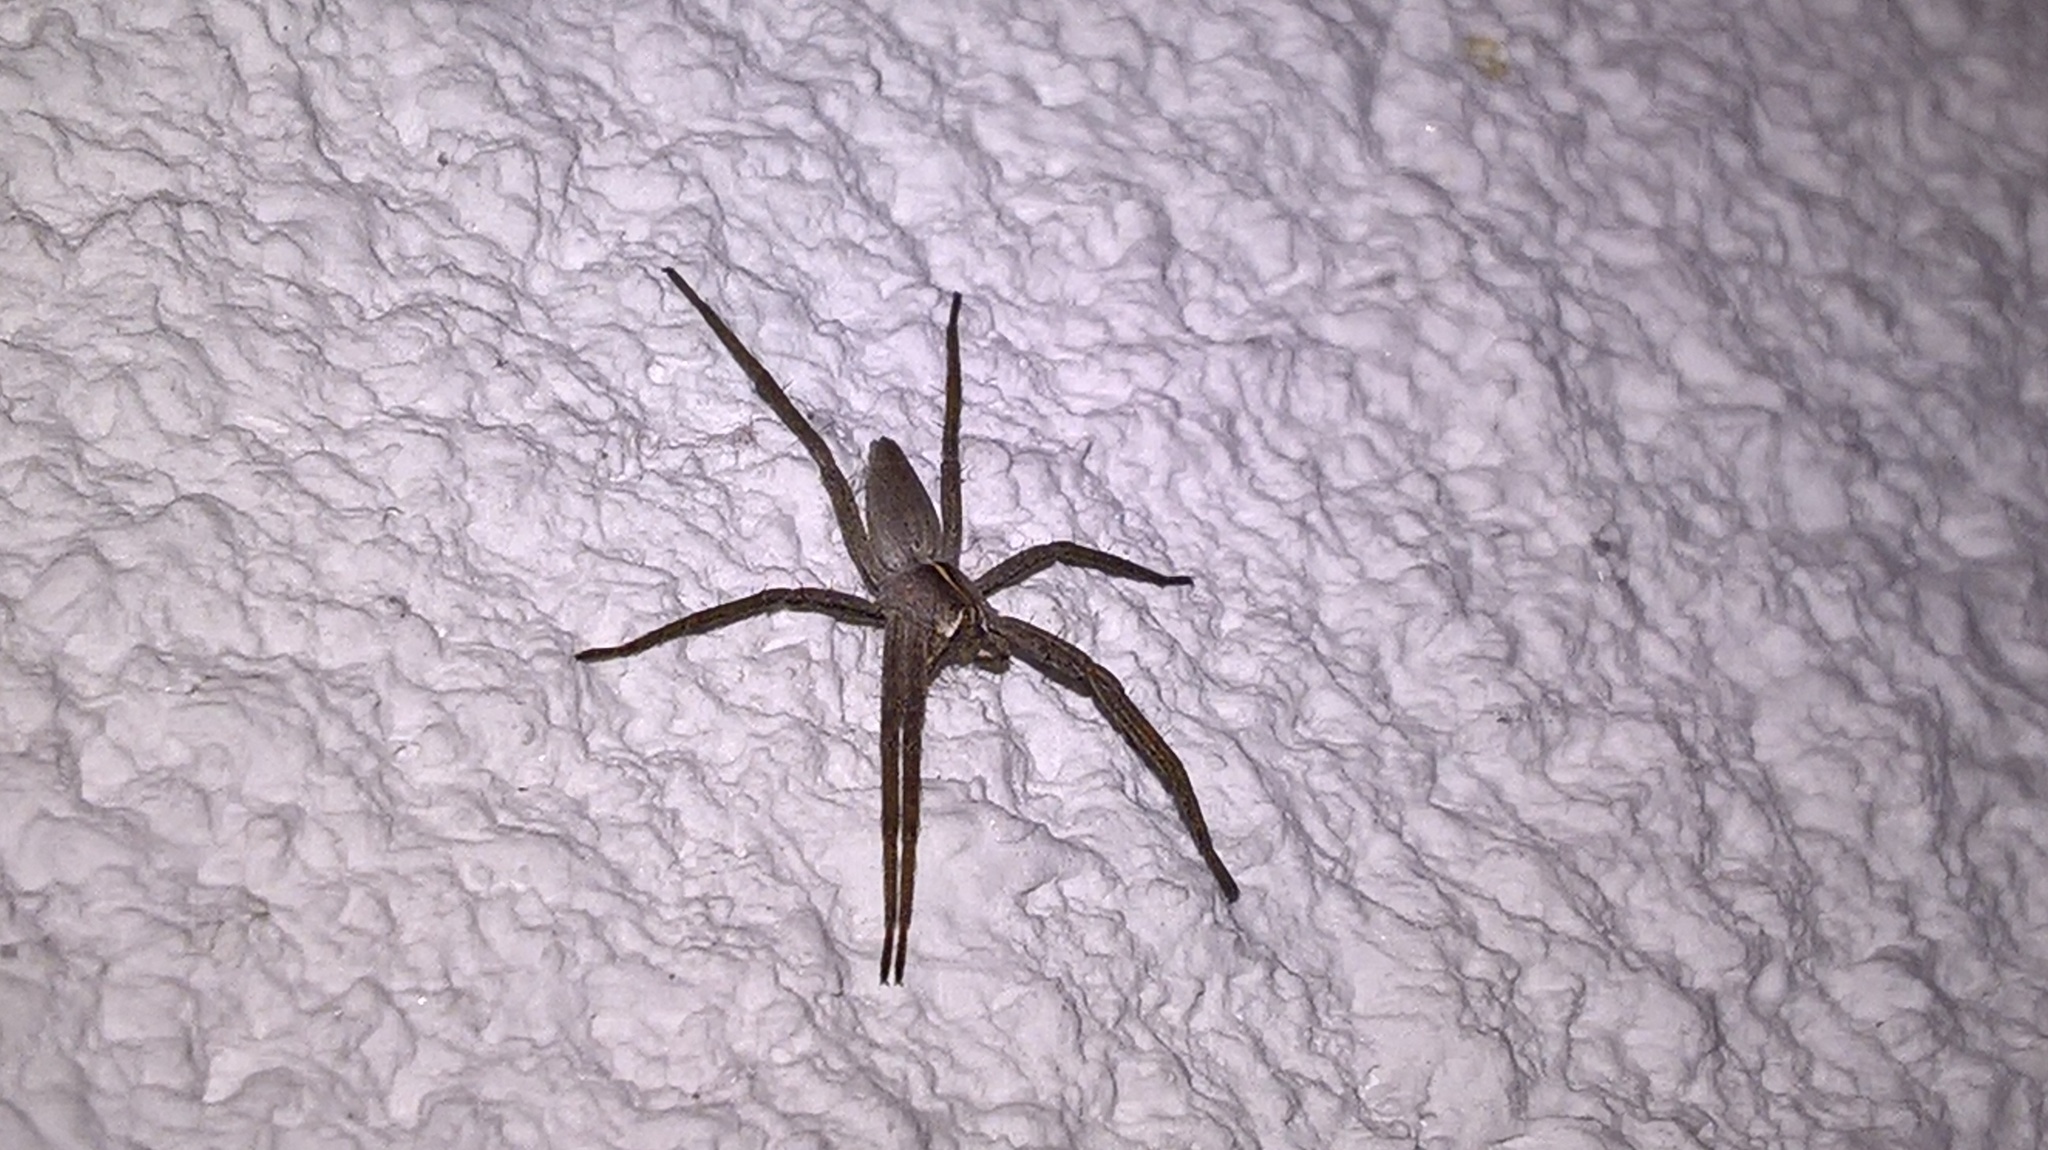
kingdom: Animalia
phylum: Arthropoda
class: Arachnida
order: Araneae
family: Pisauridae
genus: Pisaura
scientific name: Pisaura mirabilis
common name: Tent spider
